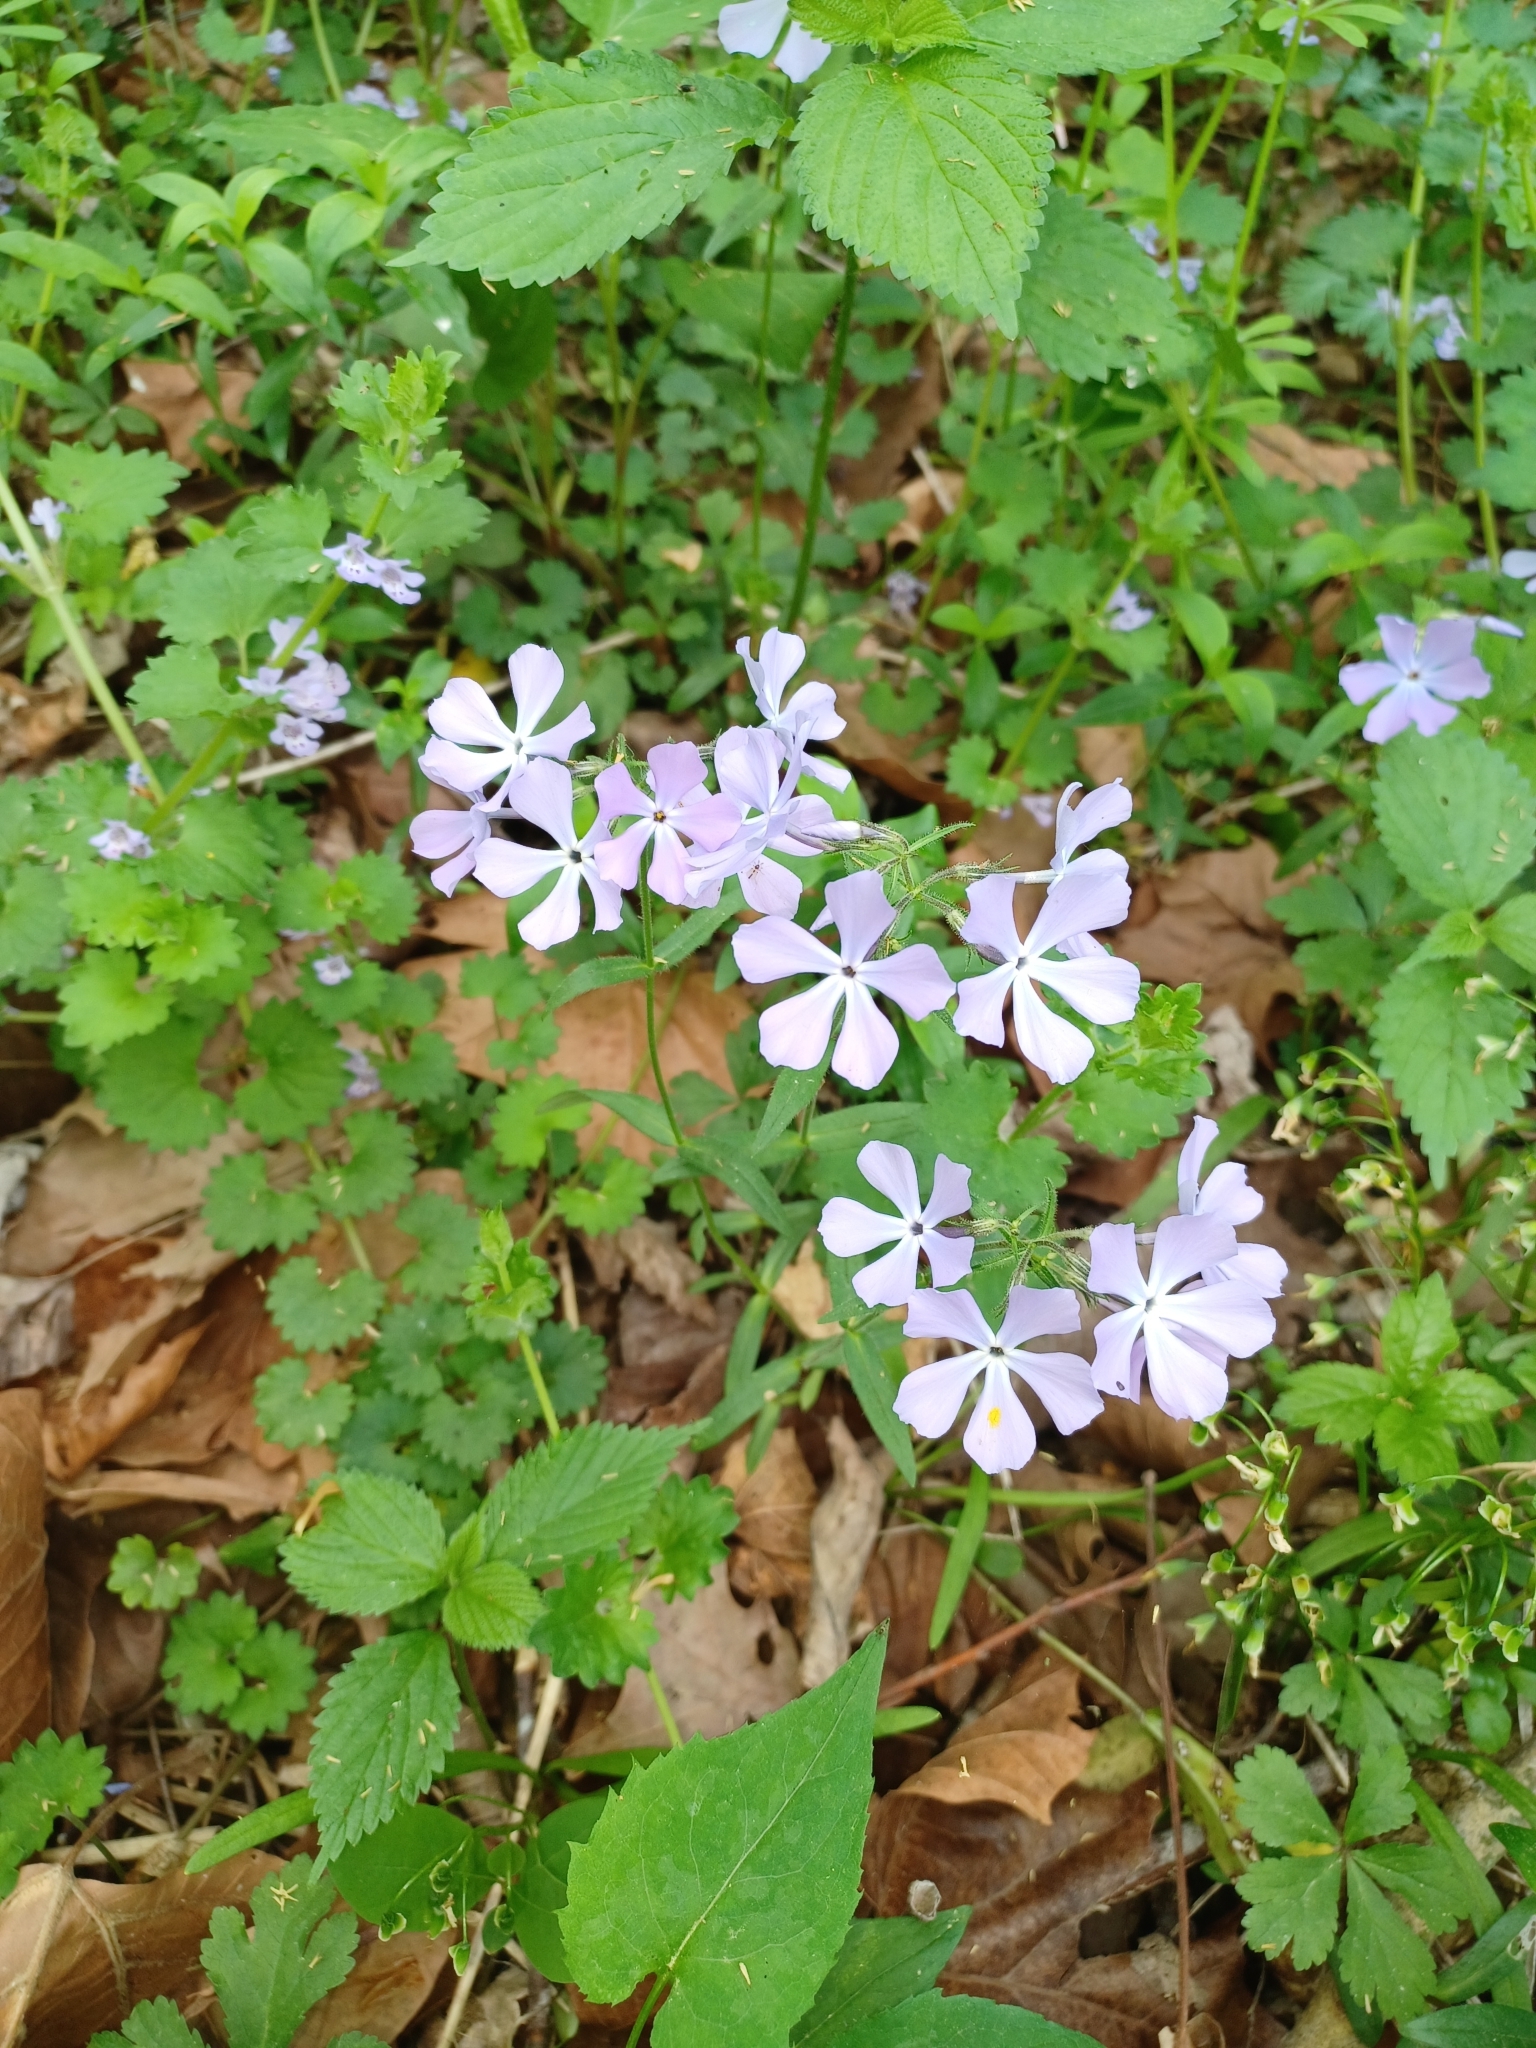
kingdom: Plantae
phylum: Tracheophyta
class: Magnoliopsida
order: Ericales
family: Polemoniaceae
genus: Phlox
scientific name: Phlox divaricata
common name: Blue phlox
